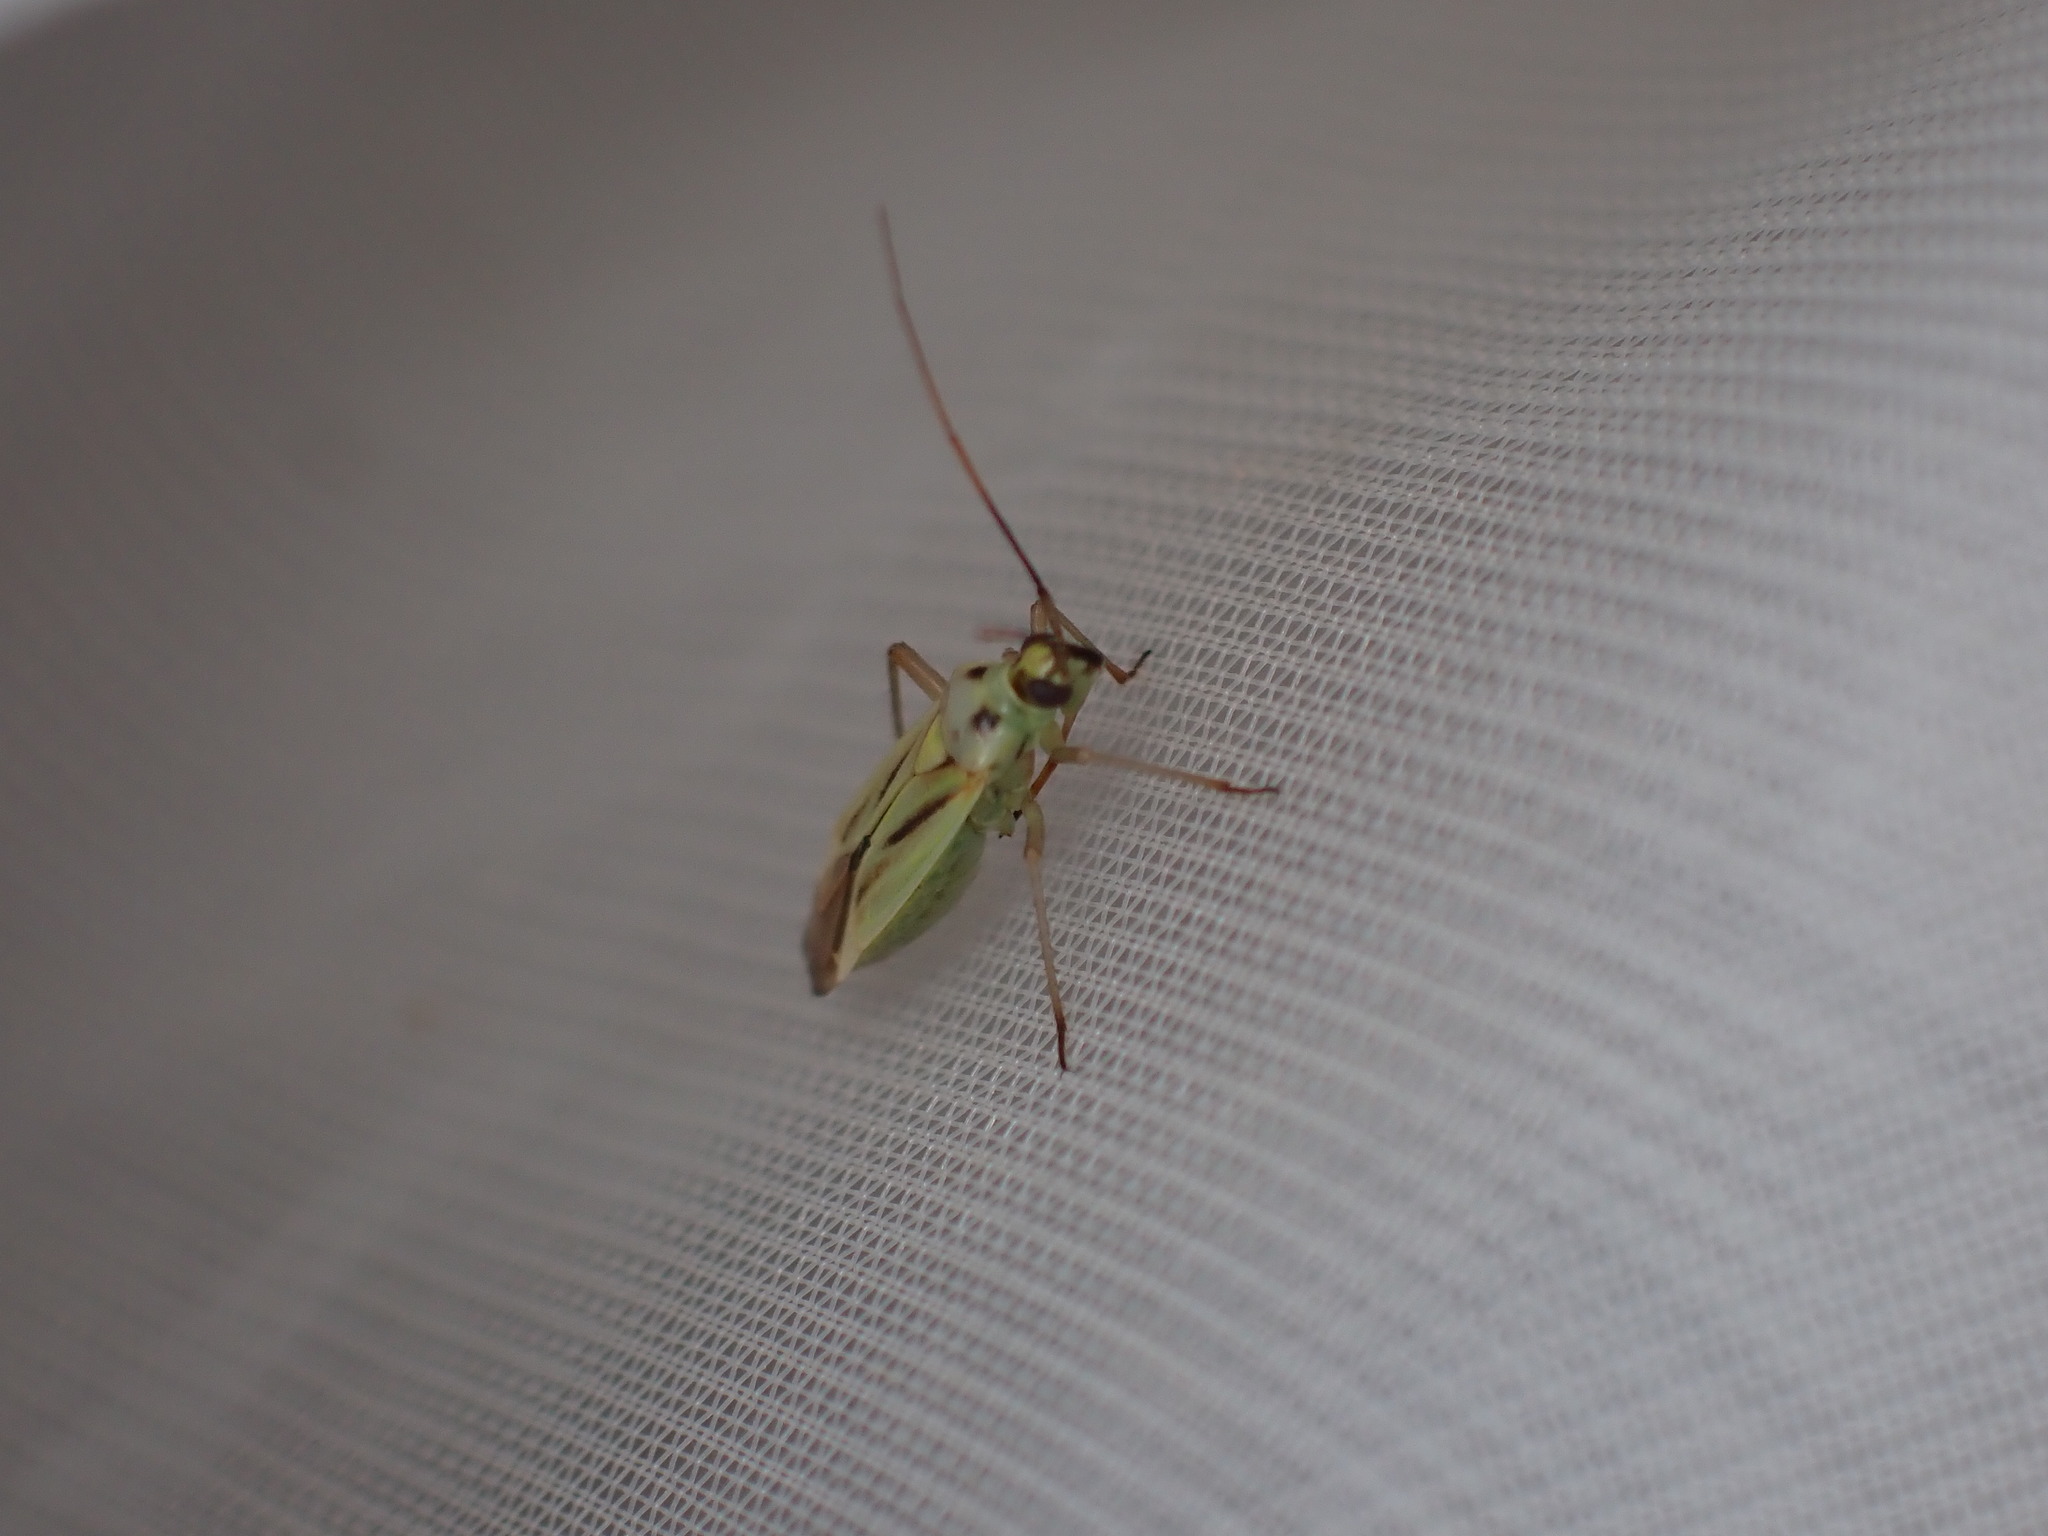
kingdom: Animalia
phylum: Arthropoda
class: Insecta
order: Hemiptera
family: Miridae
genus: Stenotus
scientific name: Stenotus binotatus
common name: Plant bug
